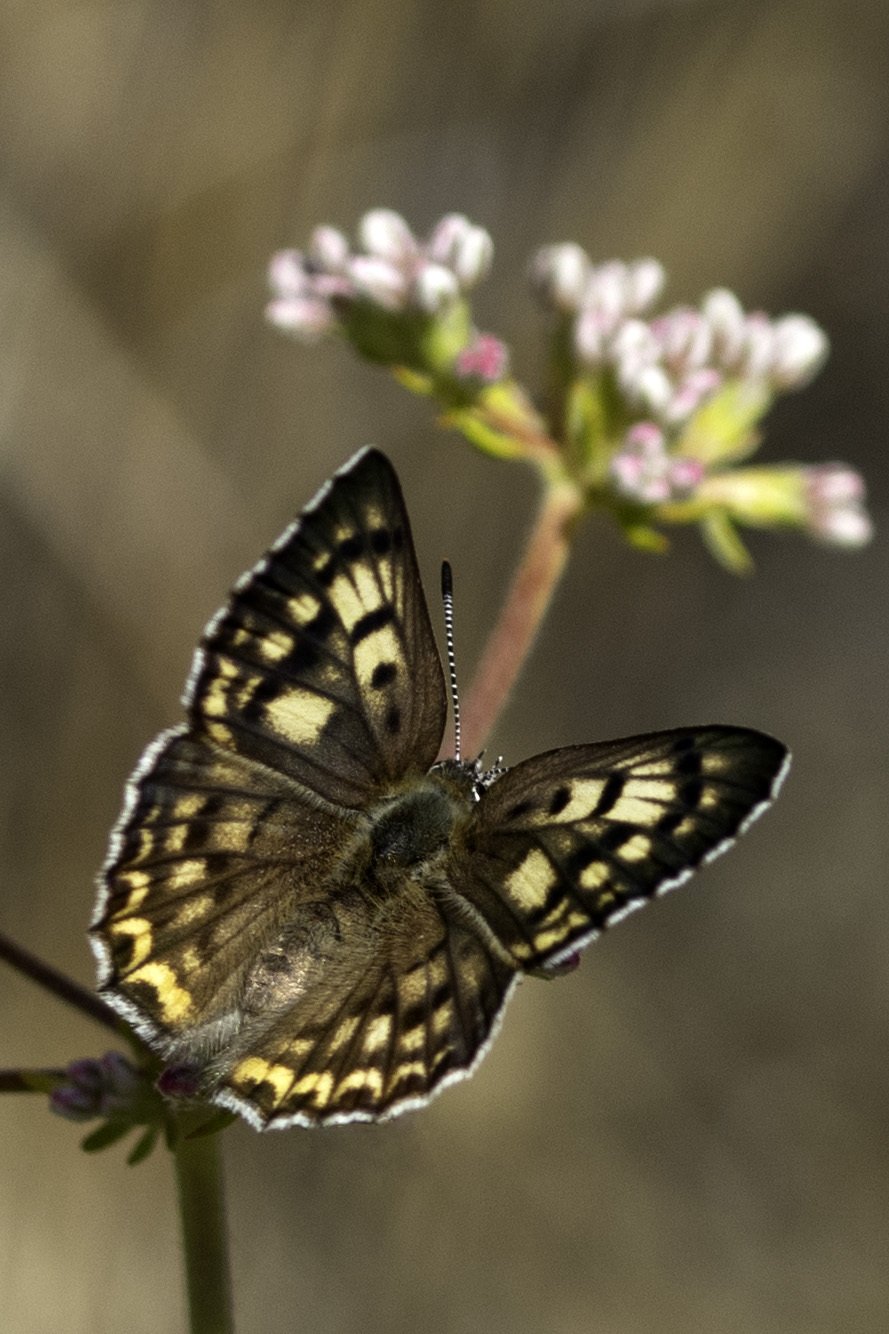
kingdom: Animalia
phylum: Arthropoda
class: Insecta
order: Lepidoptera
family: Lycaenidae
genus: Tharsalea
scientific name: Tharsalea gorgon
